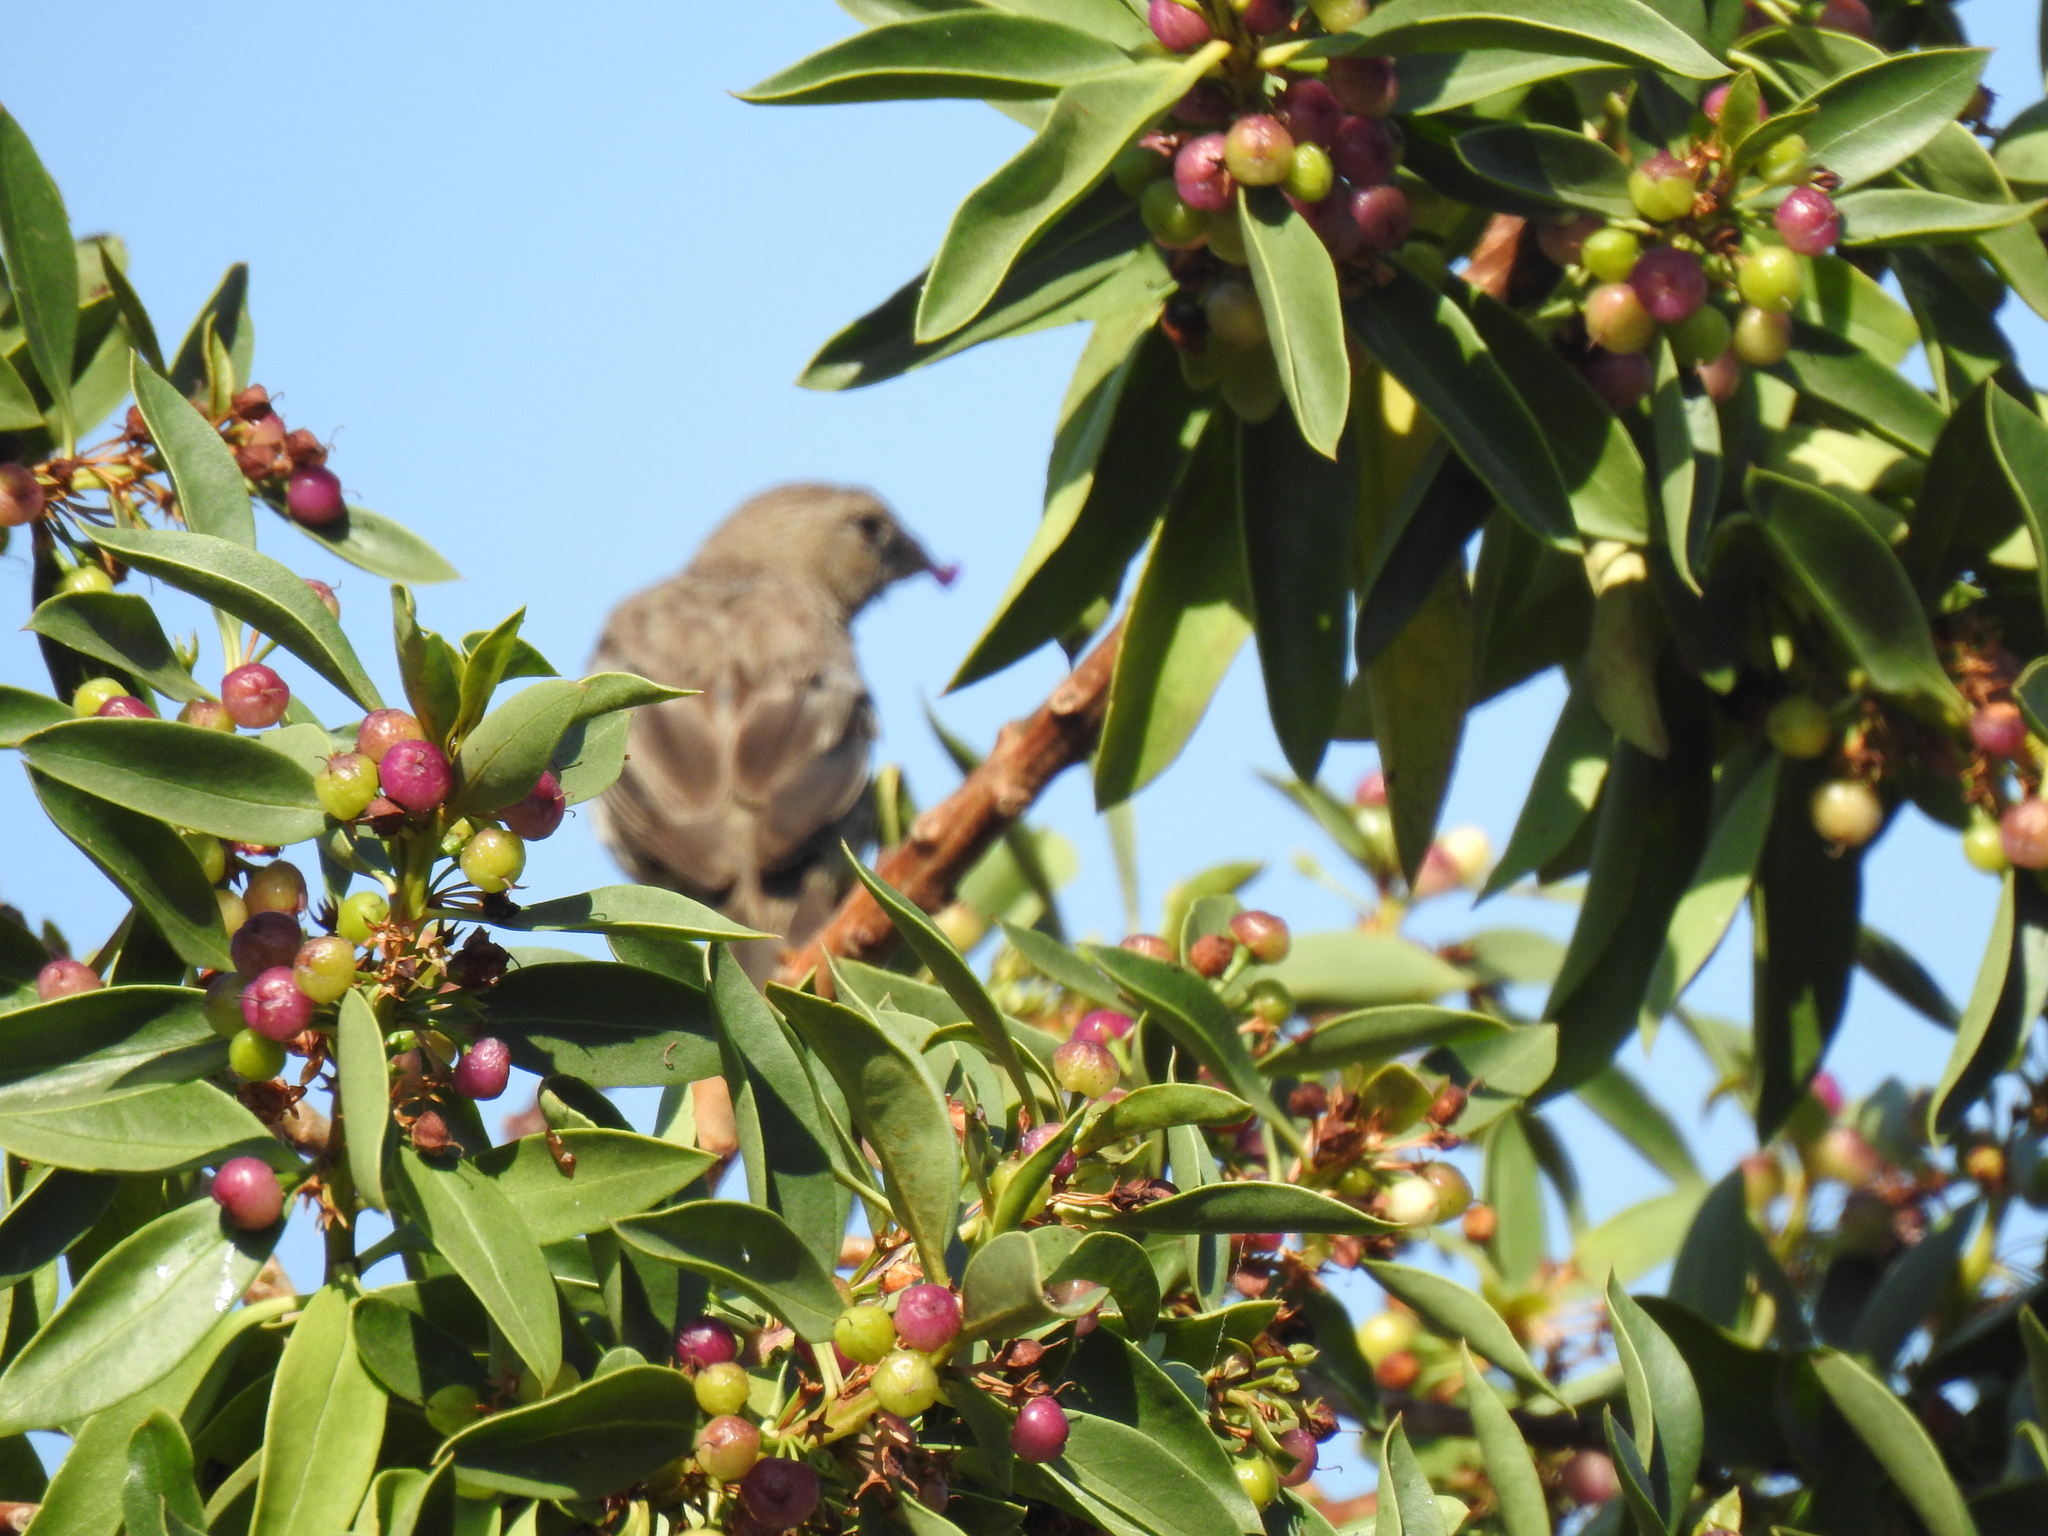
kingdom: Animalia
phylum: Chordata
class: Aves
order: Passeriformes
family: Fringillidae
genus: Haemorhous
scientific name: Haemorhous mexicanus
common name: House finch
